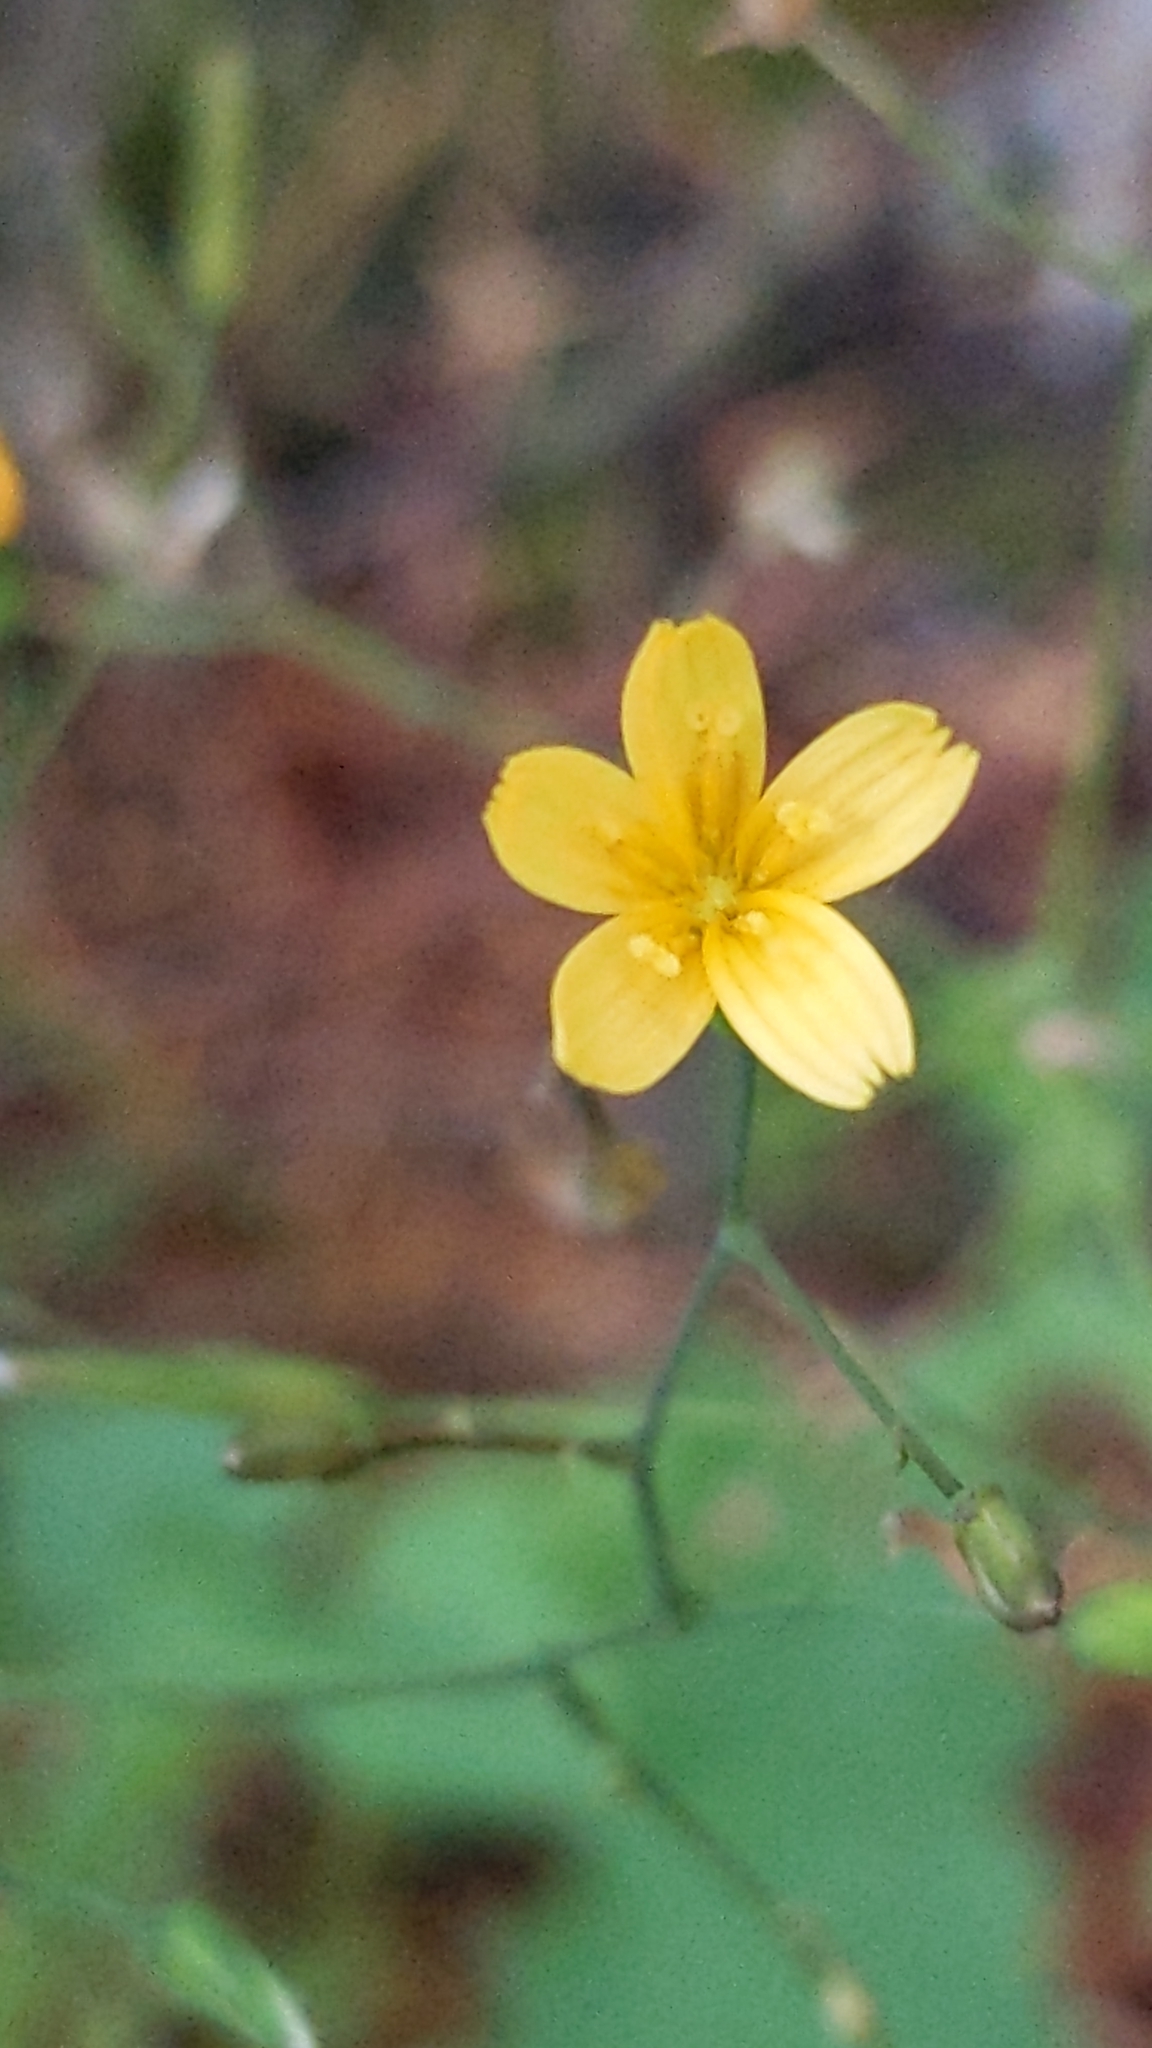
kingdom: Plantae
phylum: Tracheophyta
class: Magnoliopsida
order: Asterales
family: Asteraceae
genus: Mycelis
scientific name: Mycelis muralis
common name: Wall lettuce
